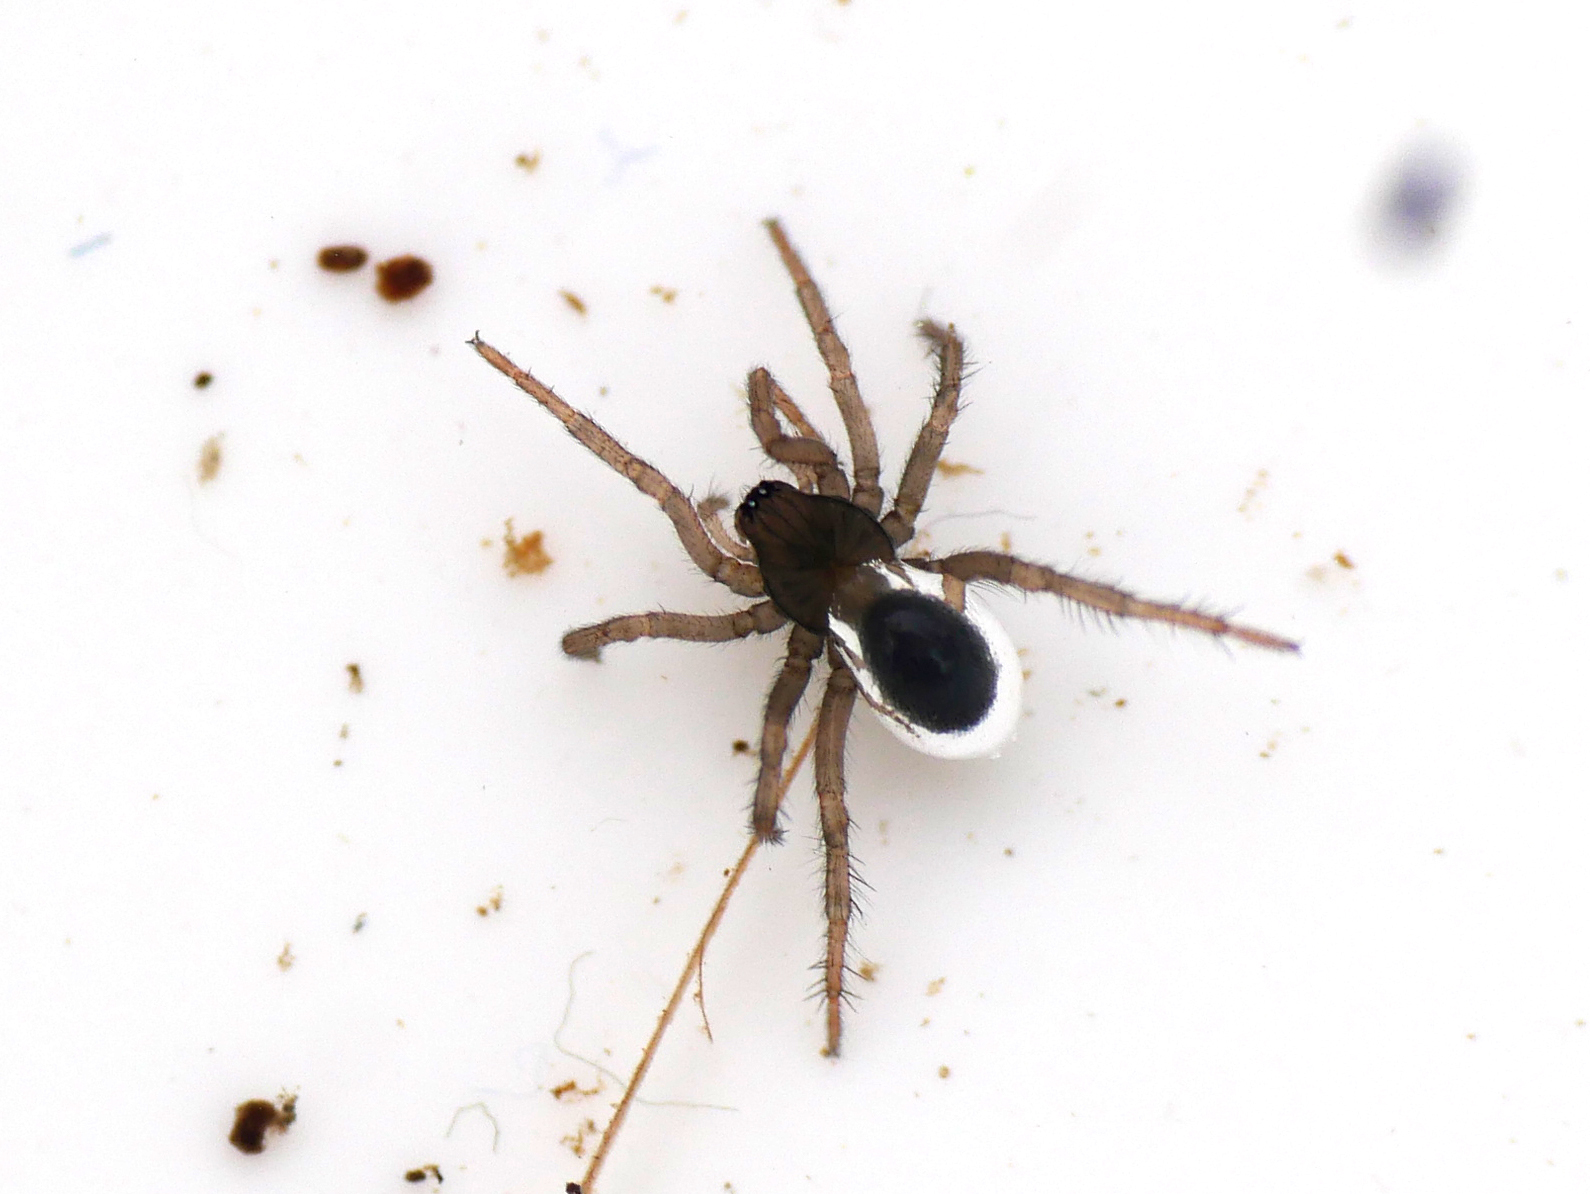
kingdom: Animalia
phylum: Arthropoda
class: Arachnida
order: Araneae
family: Dictynidae
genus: Argyroneta
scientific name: Argyroneta aquatica
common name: Water spider
